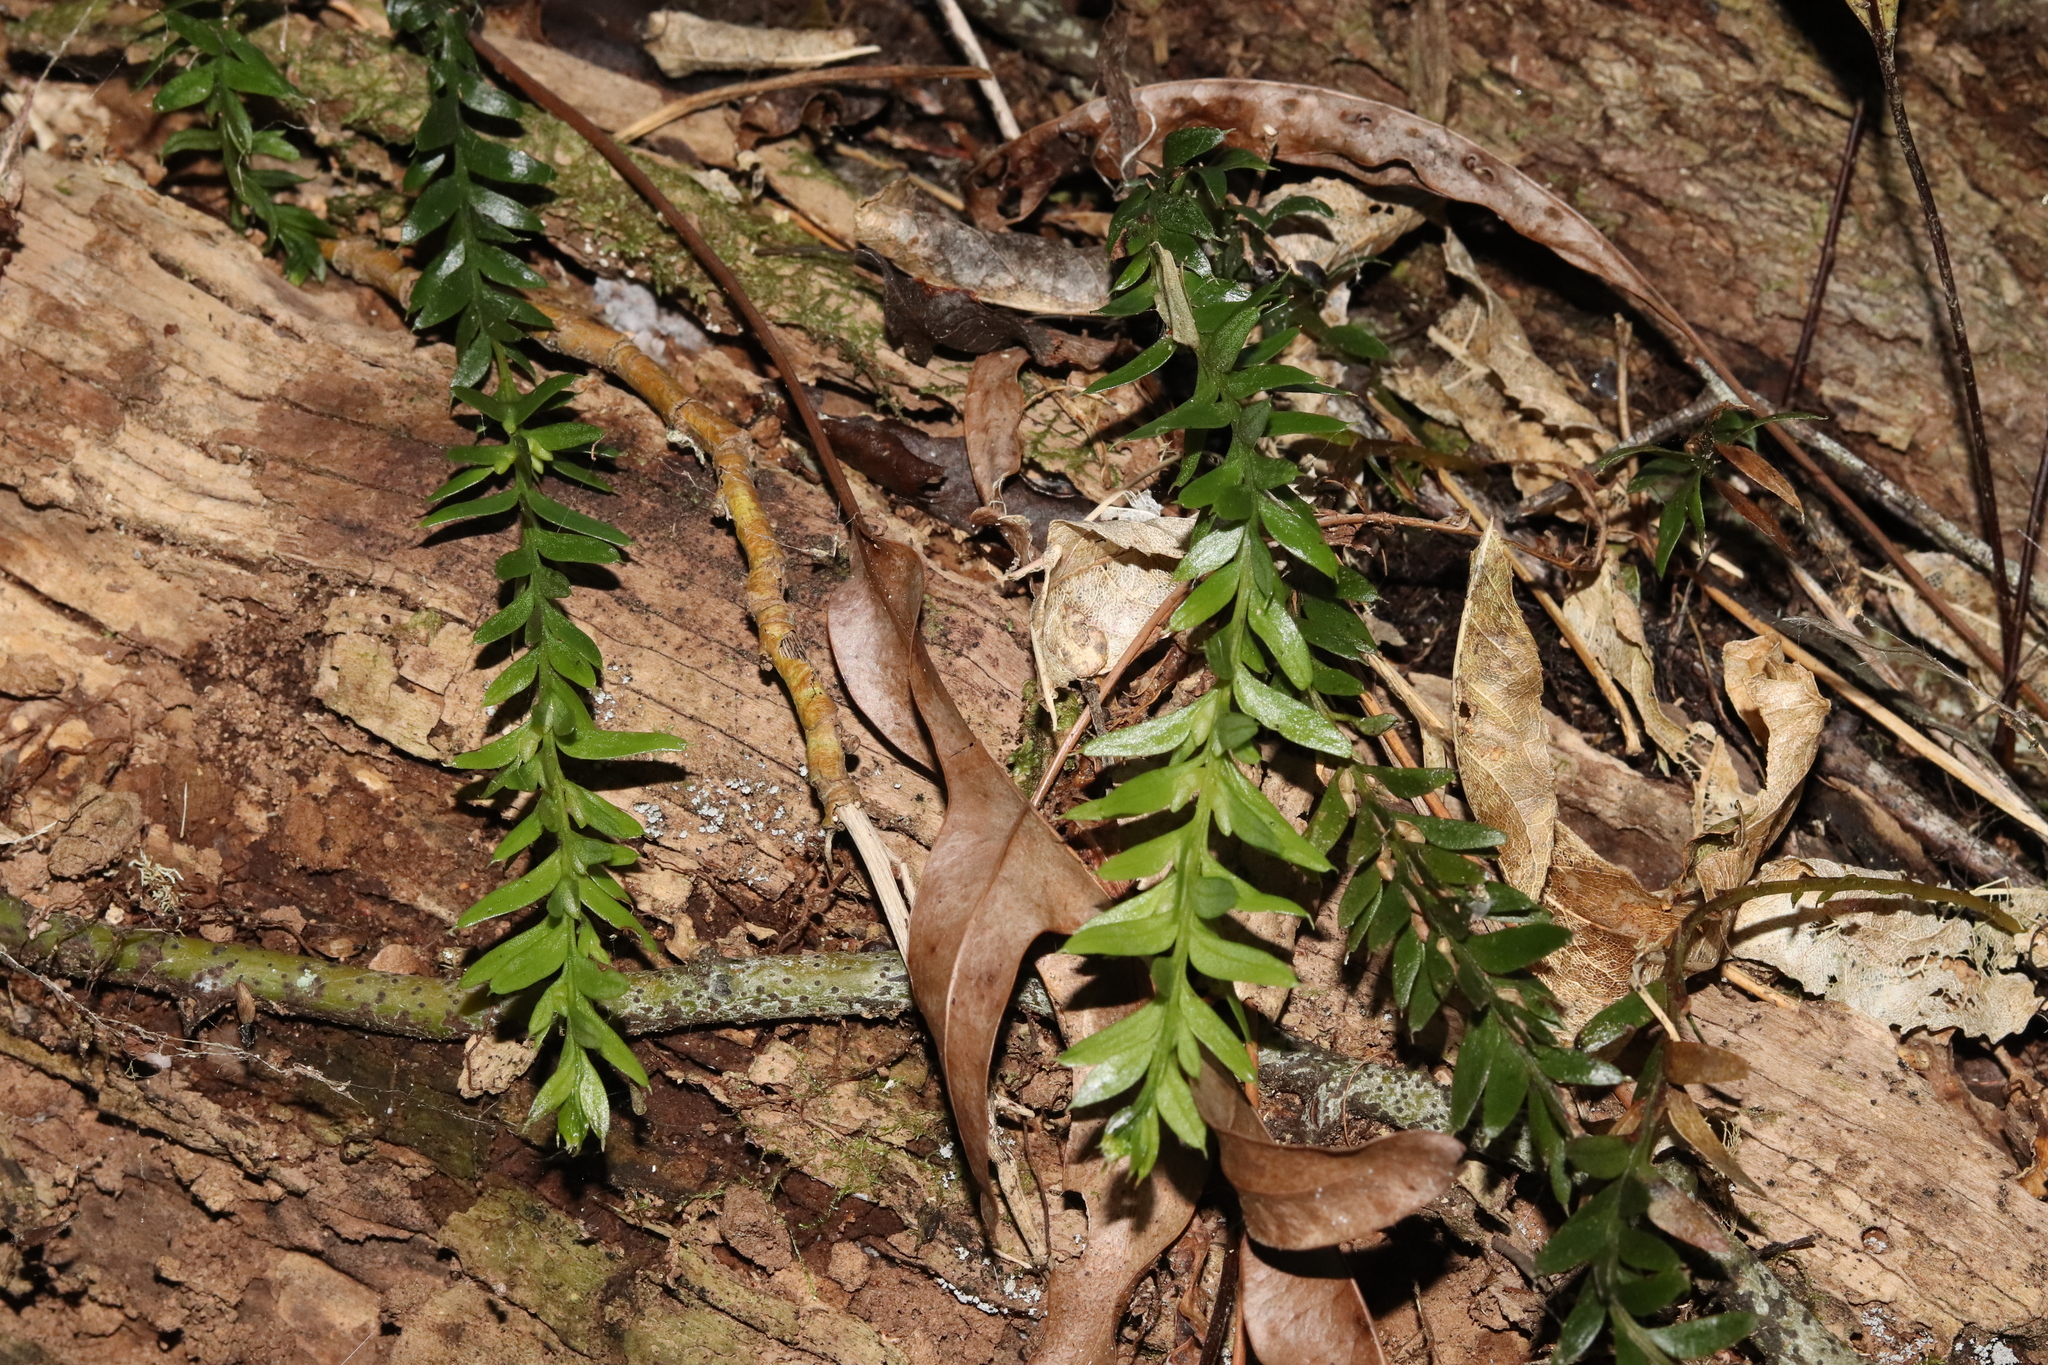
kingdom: Plantae
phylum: Tracheophyta
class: Polypodiopsida
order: Psilotales
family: Psilotaceae
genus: Tmesipteris
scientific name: Tmesipteris tannensis
